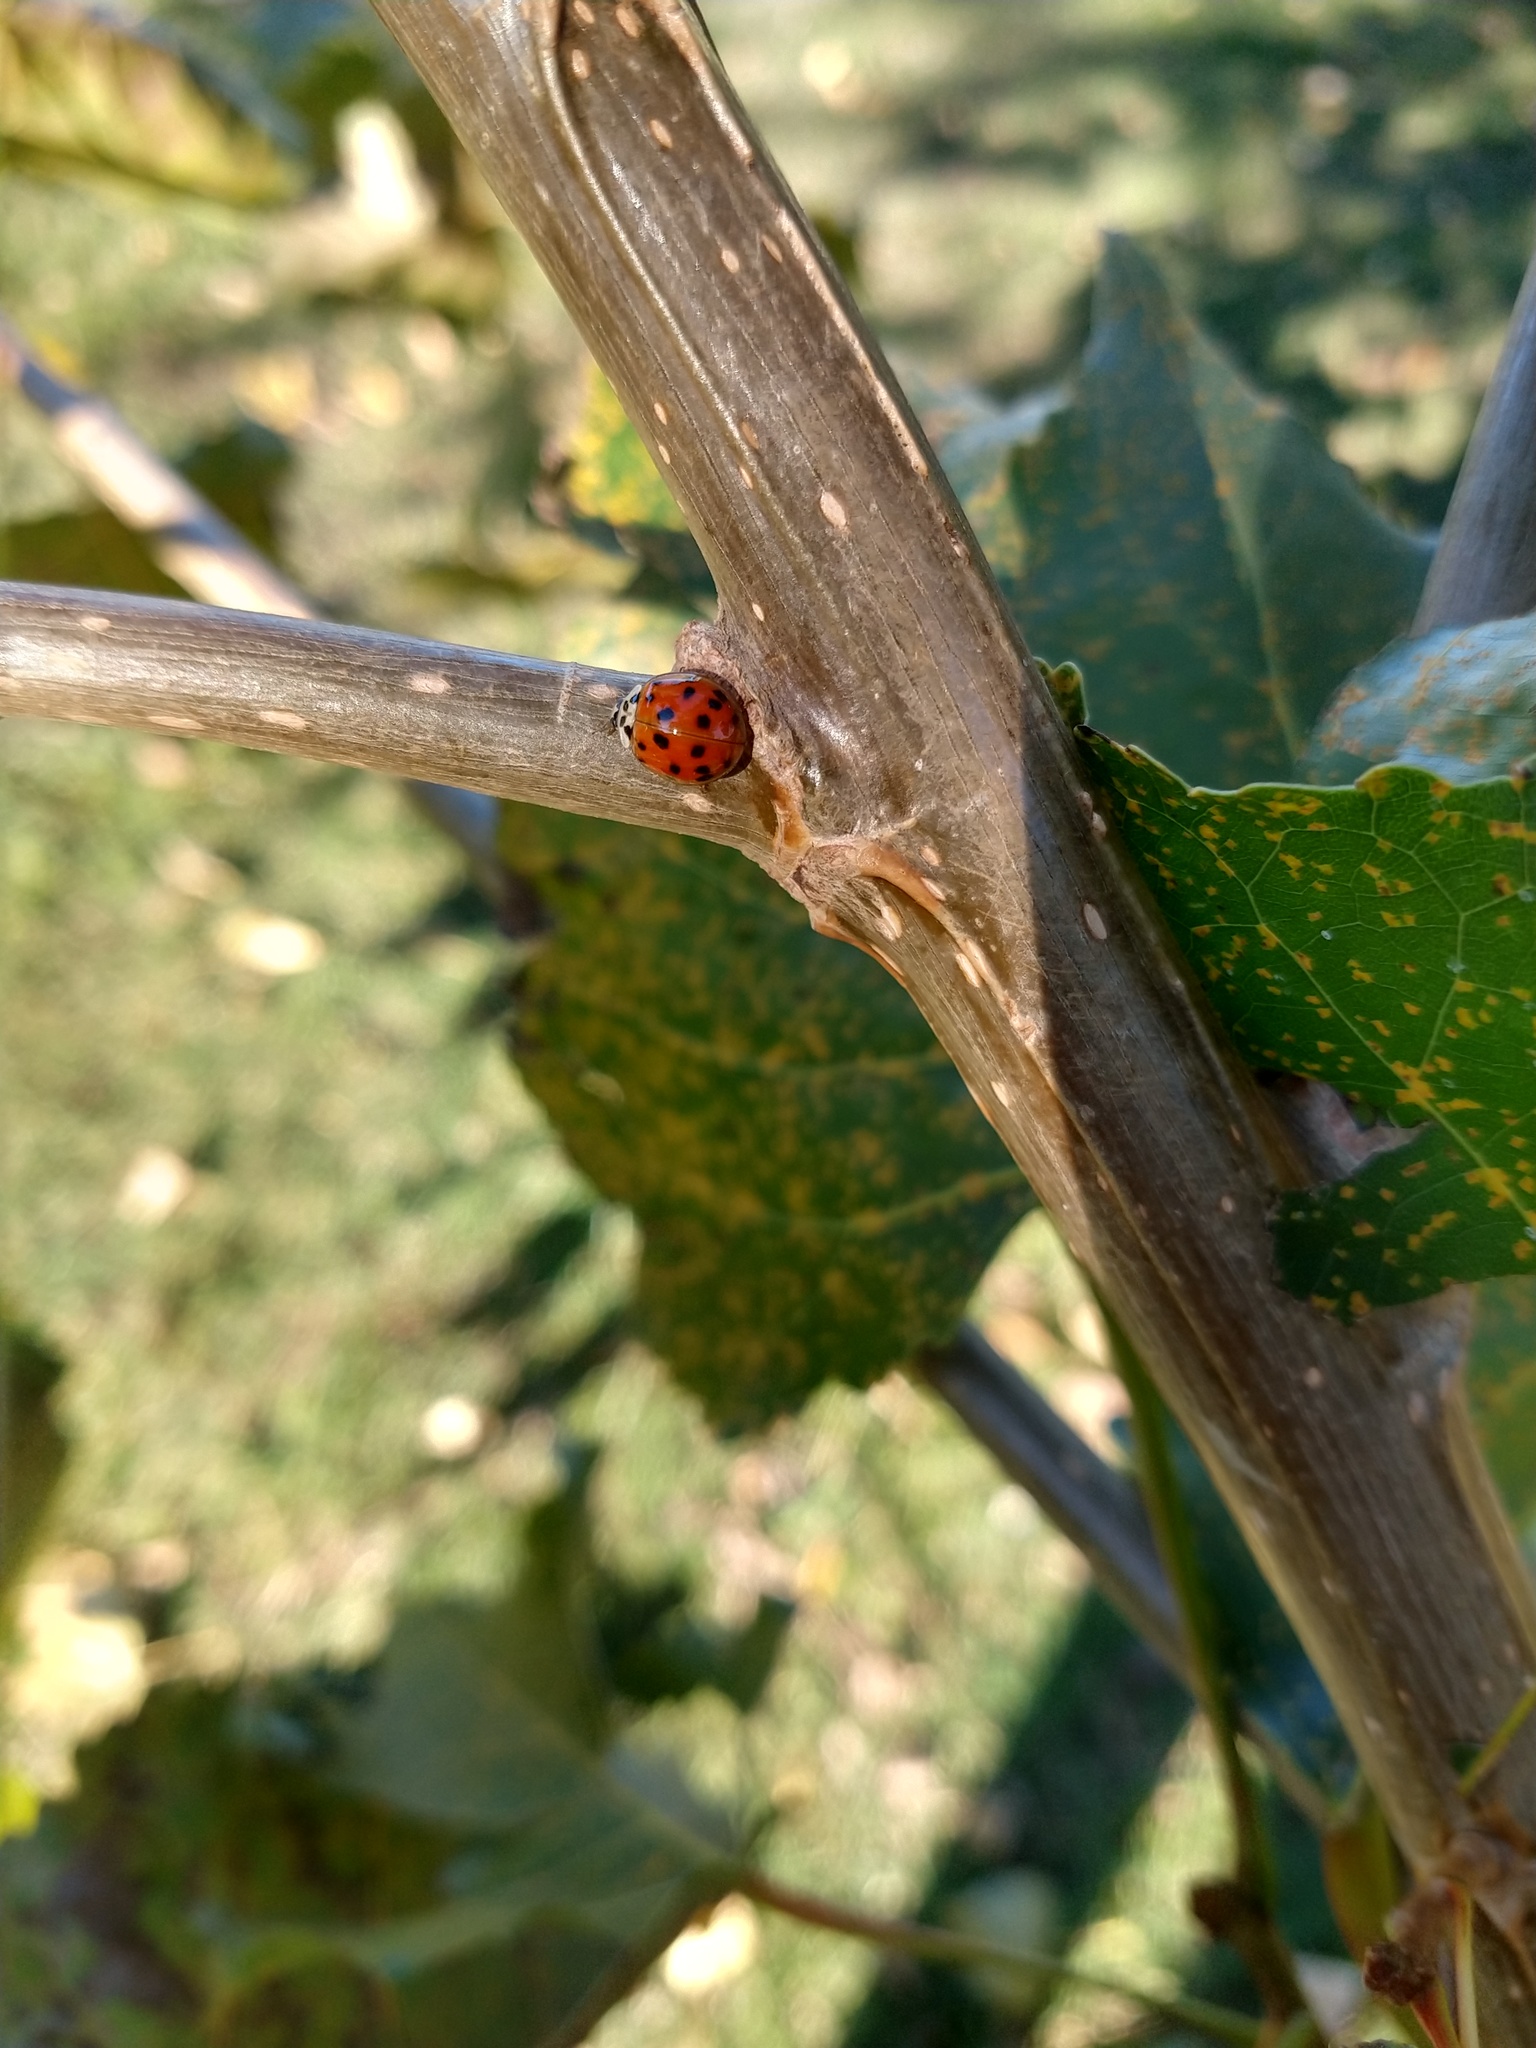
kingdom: Animalia
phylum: Arthropoda
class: Insecta
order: Coleoptera
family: Coccinellidae
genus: Harmonia
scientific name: Harmonia axyridis
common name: Harlequin ladybird
